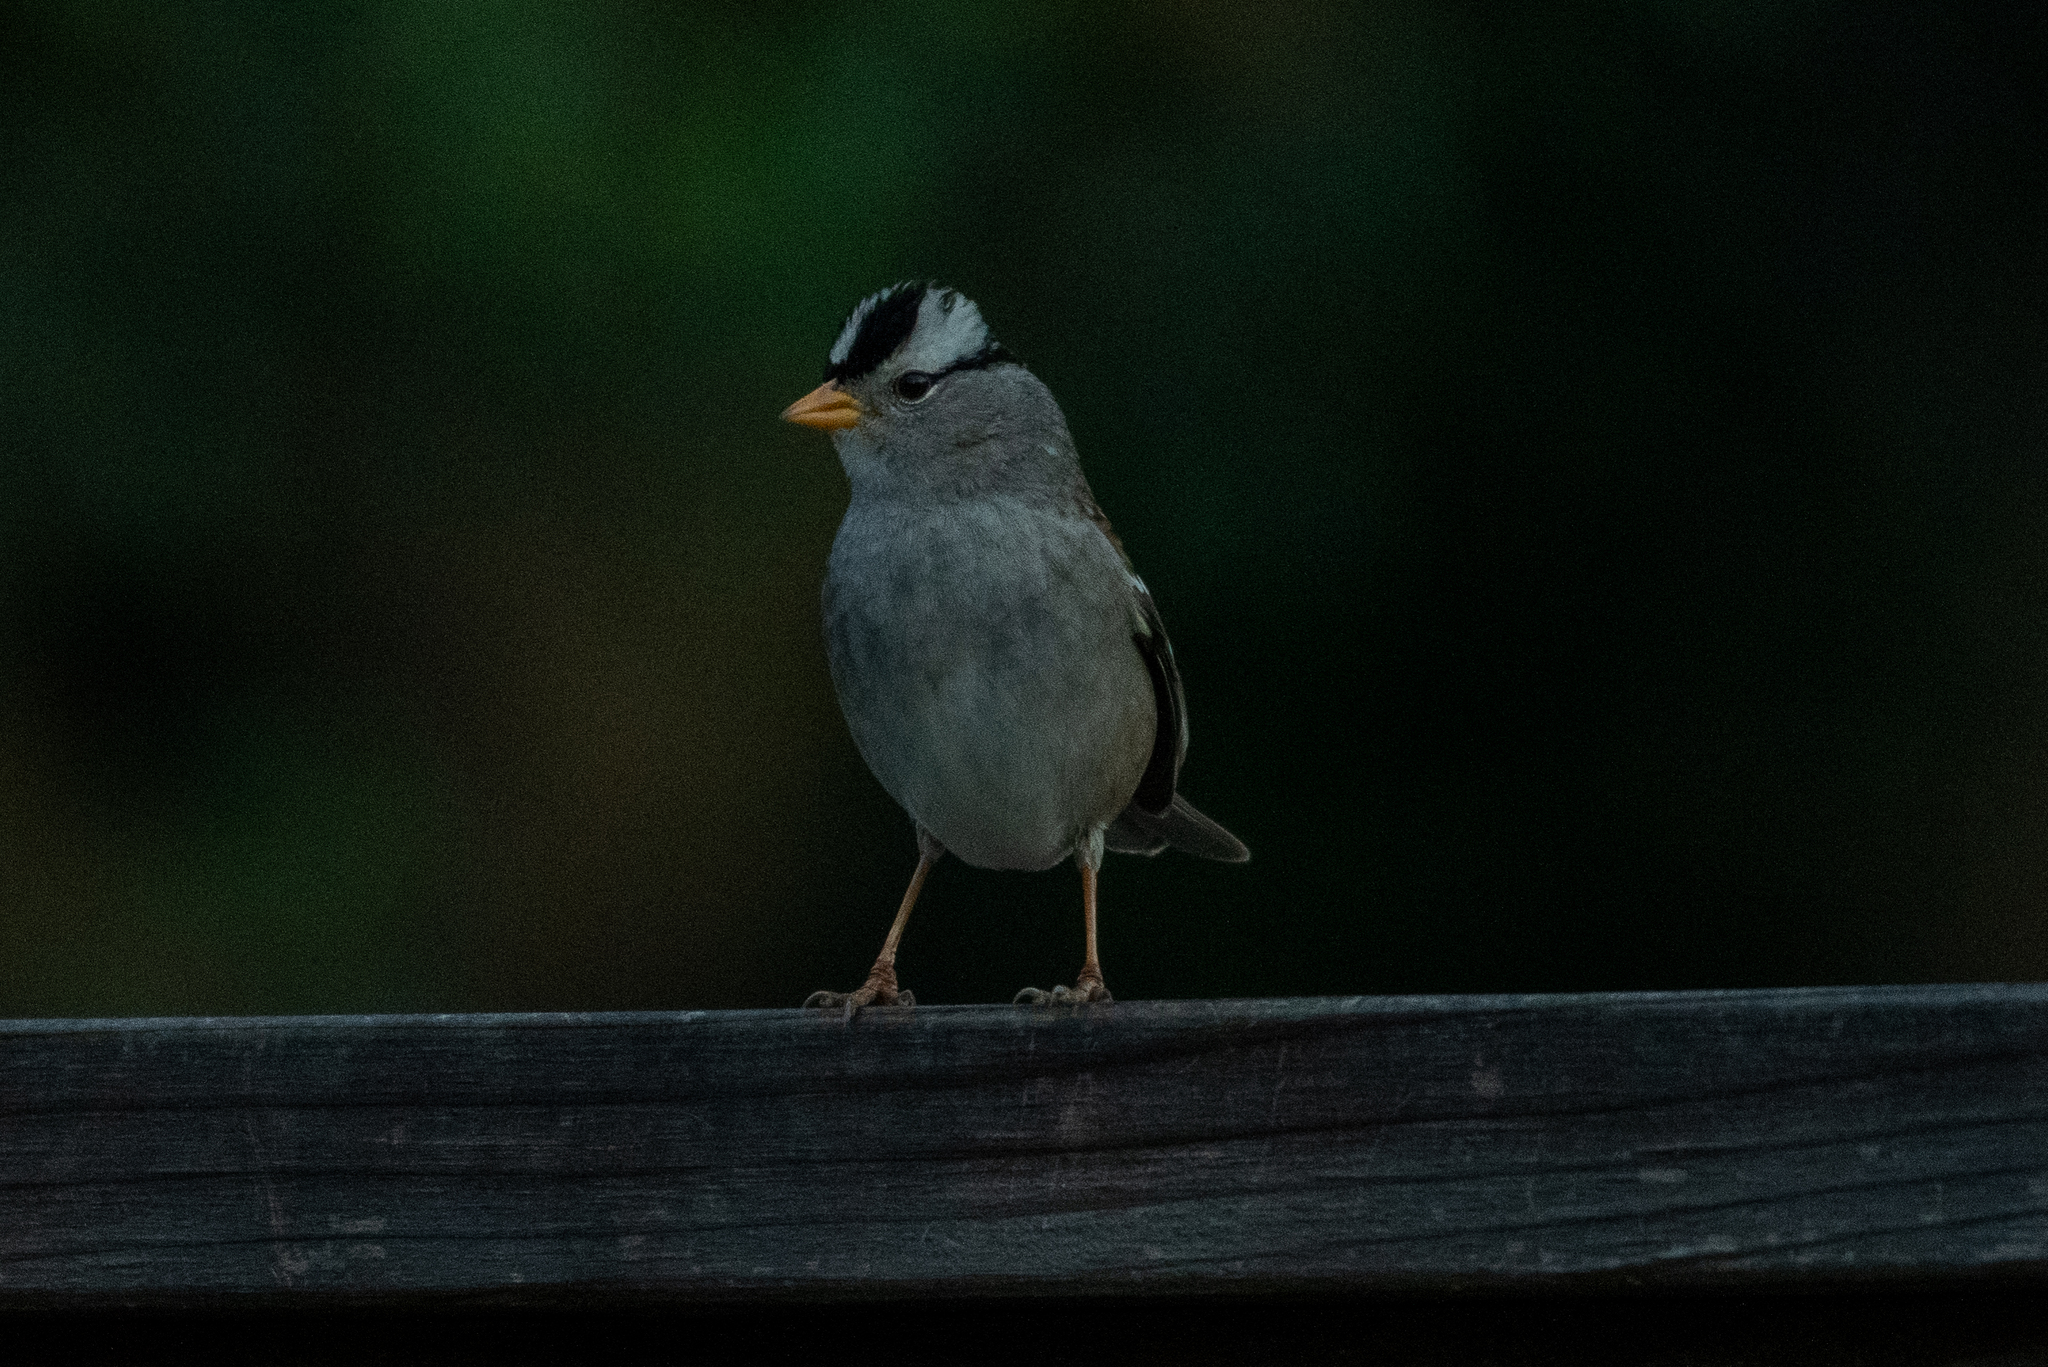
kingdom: Animalia
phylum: Chordata
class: Aves
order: Passeriformes
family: Passerellidae
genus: Zonotrichia
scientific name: Zonotrichia leucophrys
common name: White-crowned sparrow
